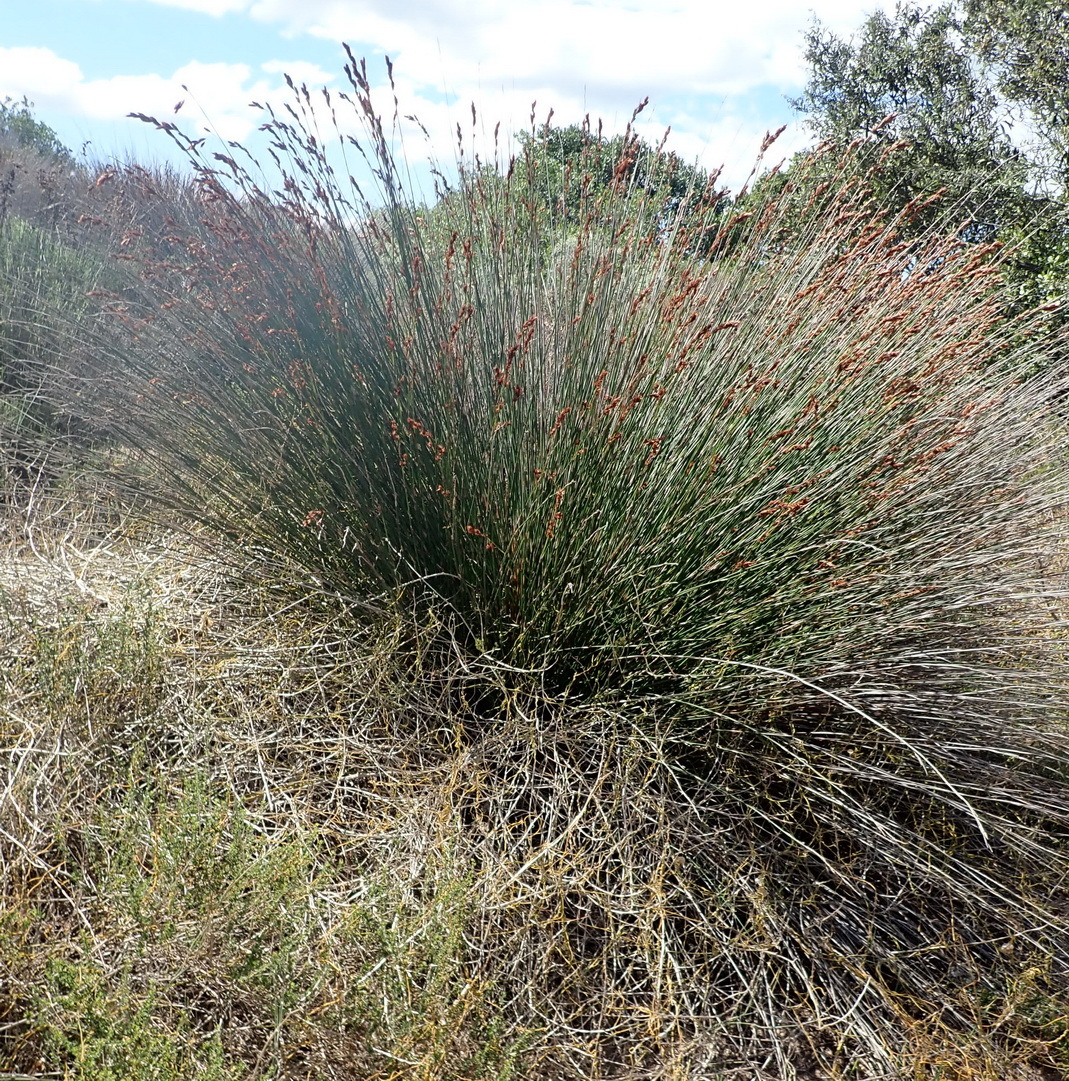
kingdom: Plantae
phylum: Tracheophyta
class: Liliopsida
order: Poales
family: Restionaceae
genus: Thamnochortus
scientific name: Thamnochortus insignis
